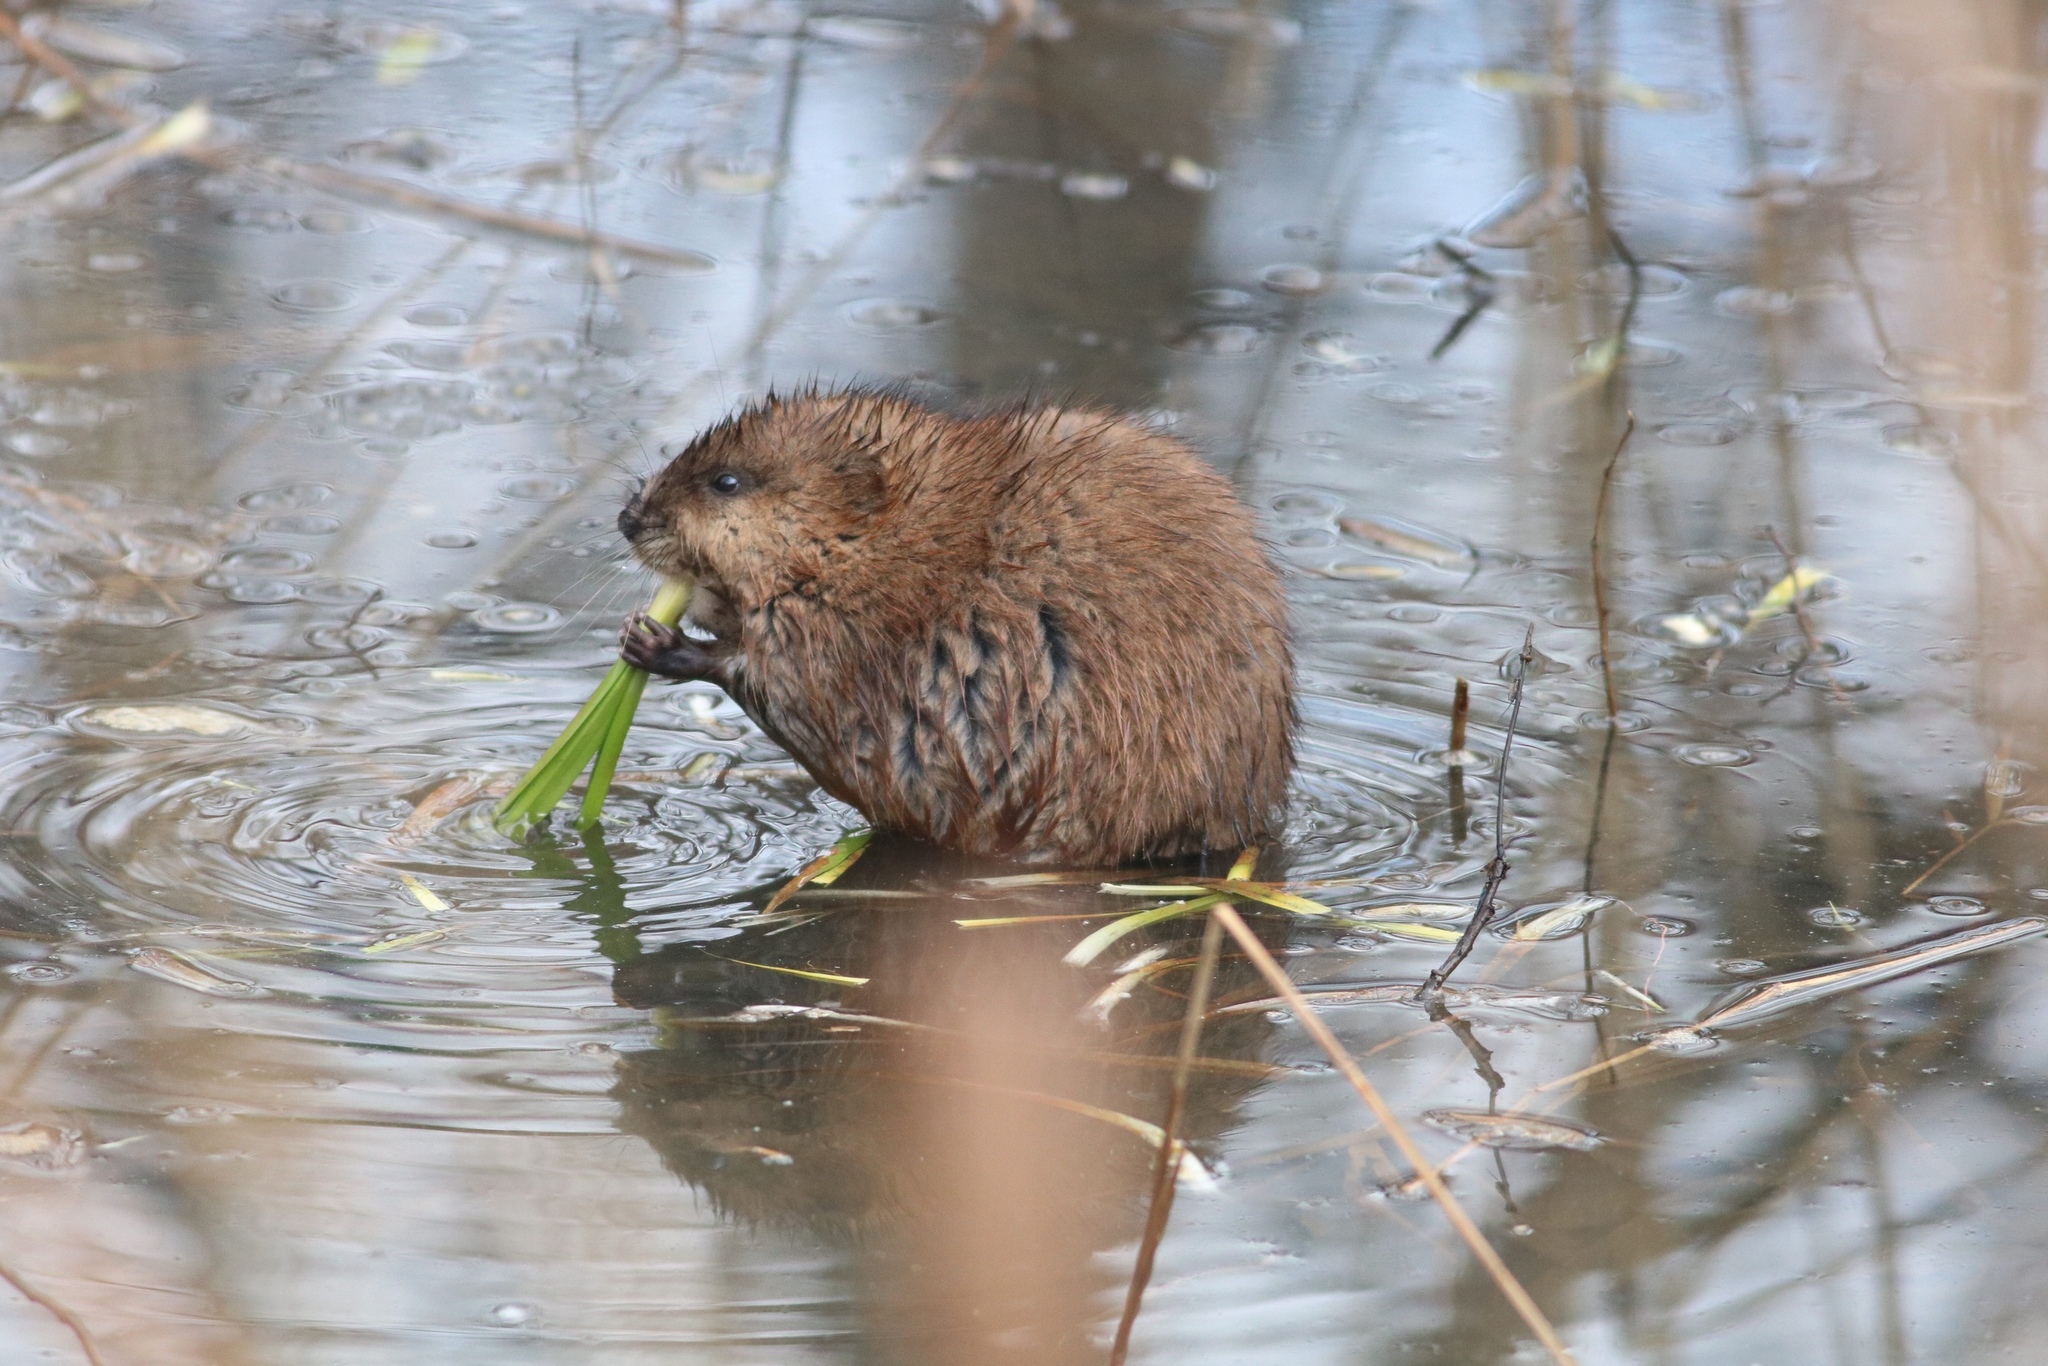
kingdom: Animalia
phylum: Chordata
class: Mammalia
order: Rodentia
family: Cricetidae
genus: Ondatra
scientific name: Ondatra zibethicus
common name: Muskrat
